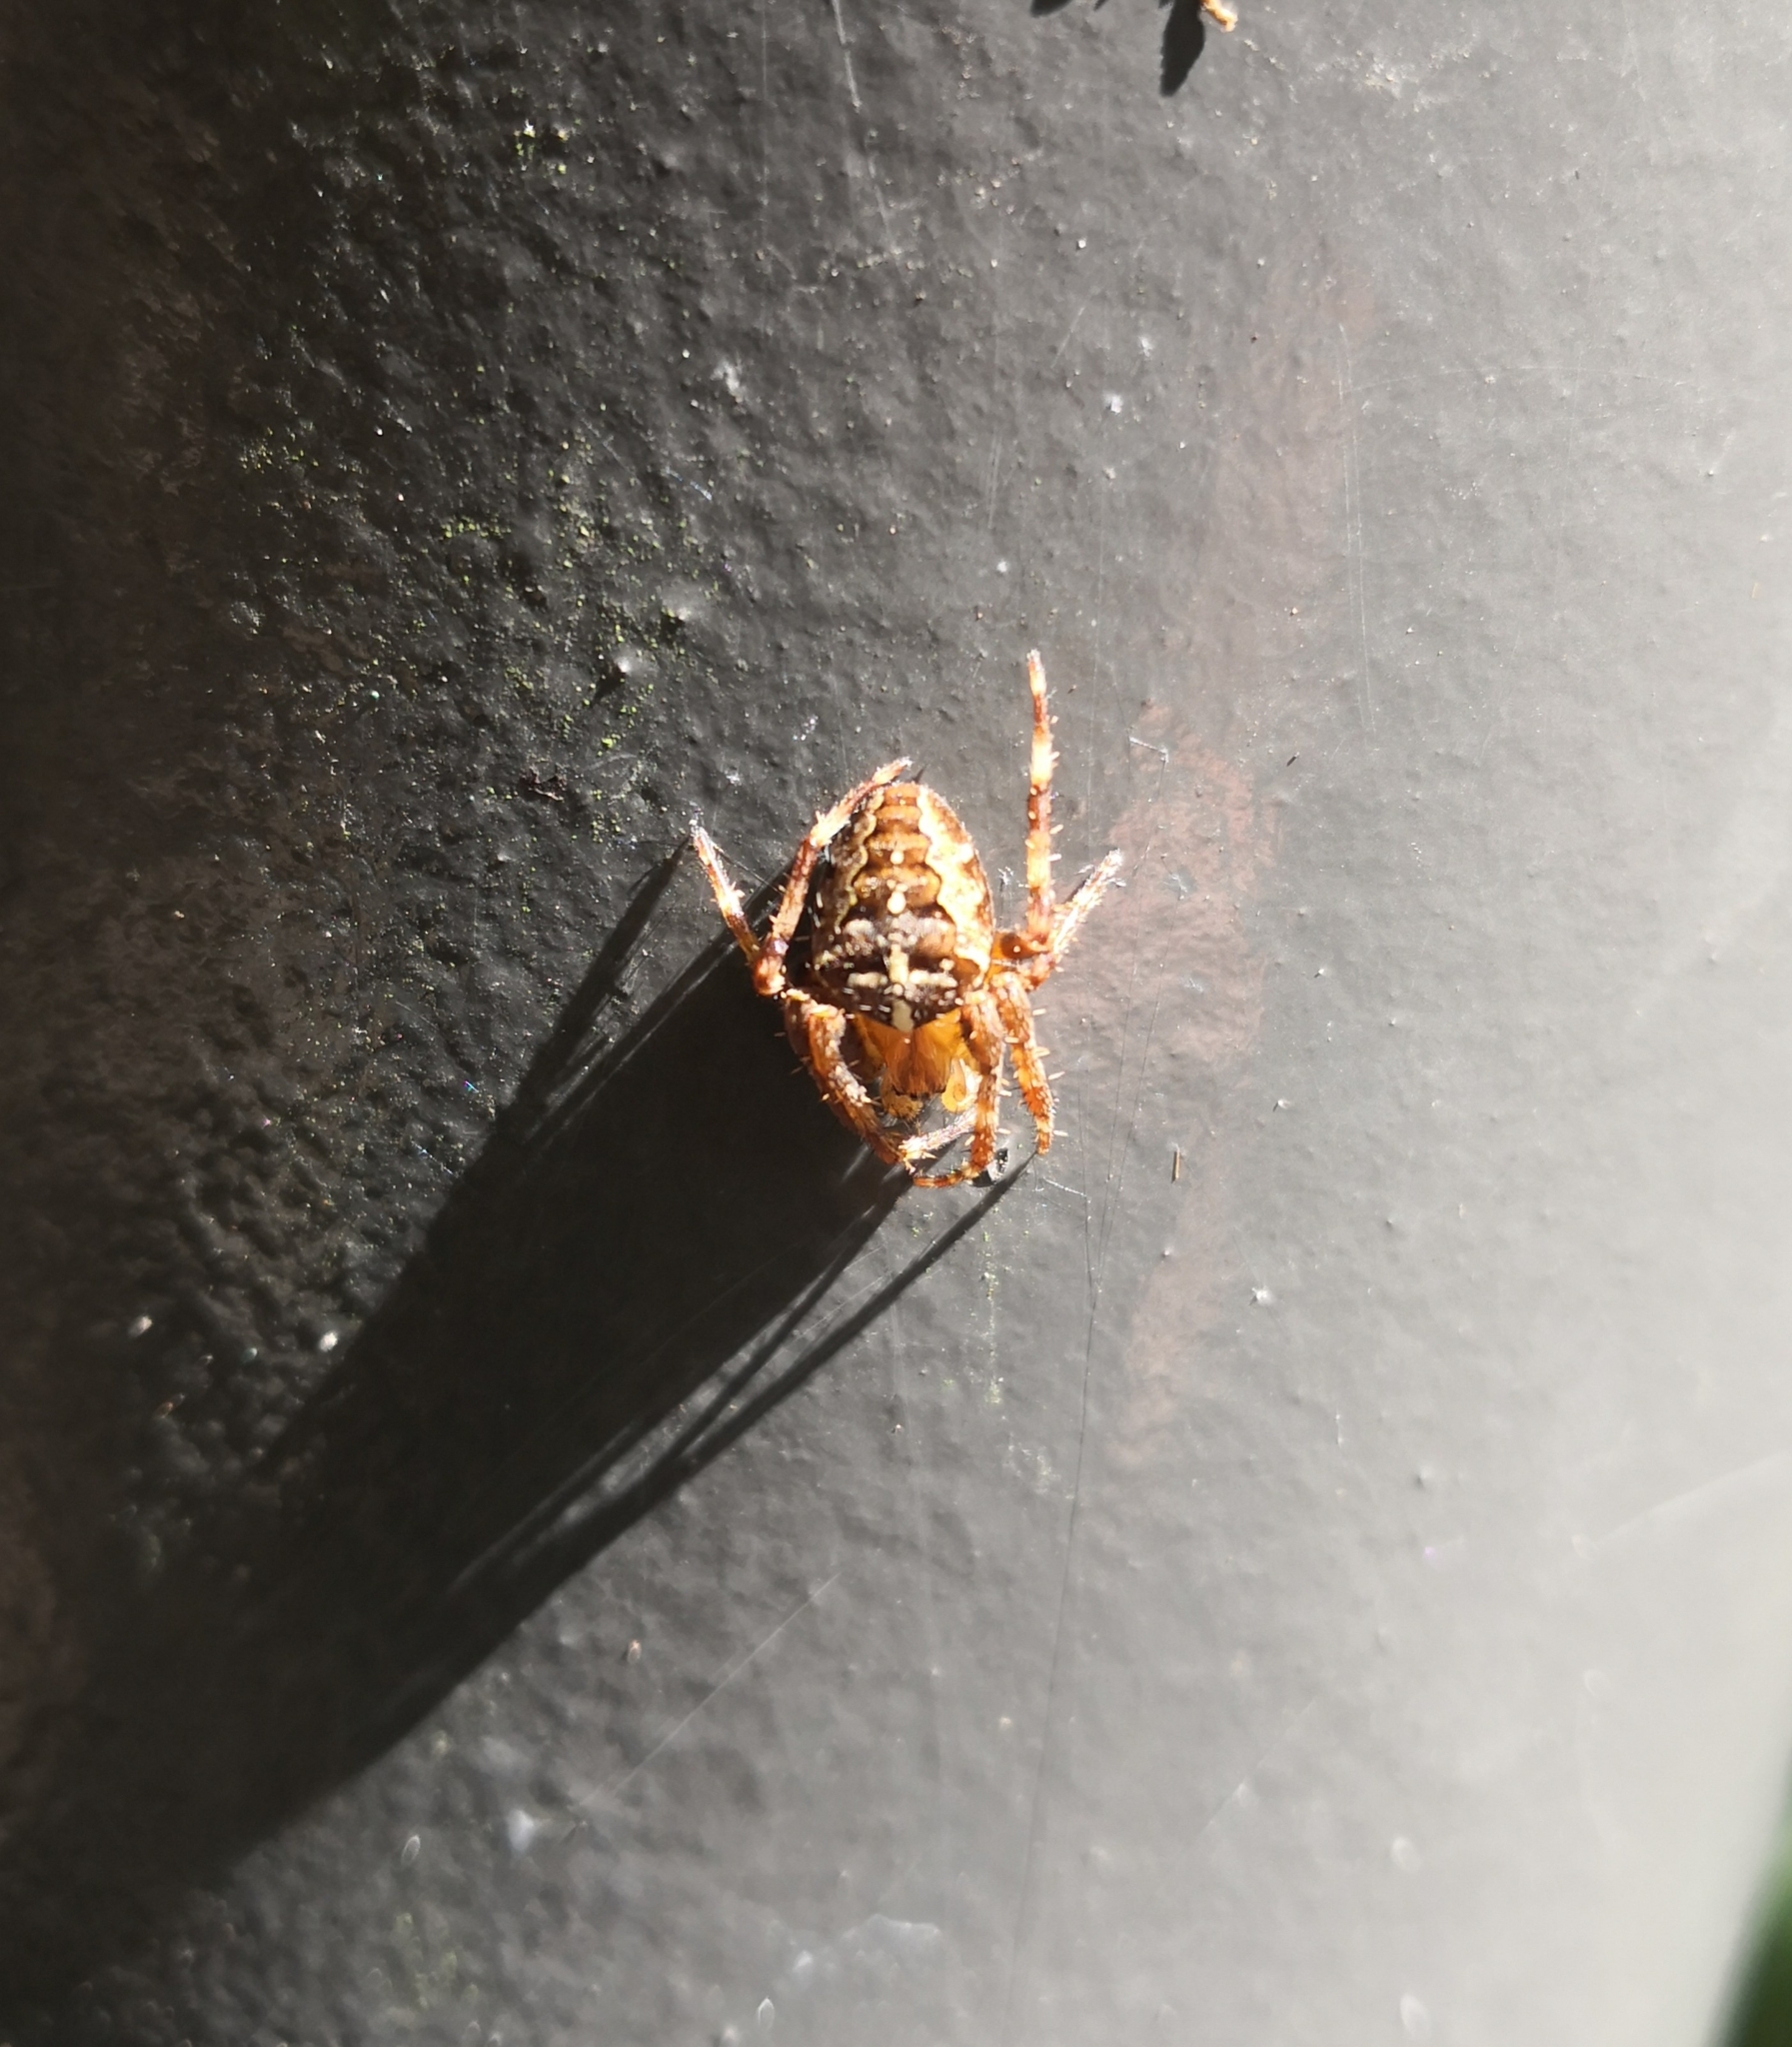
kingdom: Animalia
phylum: Arthropoda
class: Arachnida
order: Araneae
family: Araneidae
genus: Araneus
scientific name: Araneus diadematus
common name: Cross orbweaver
